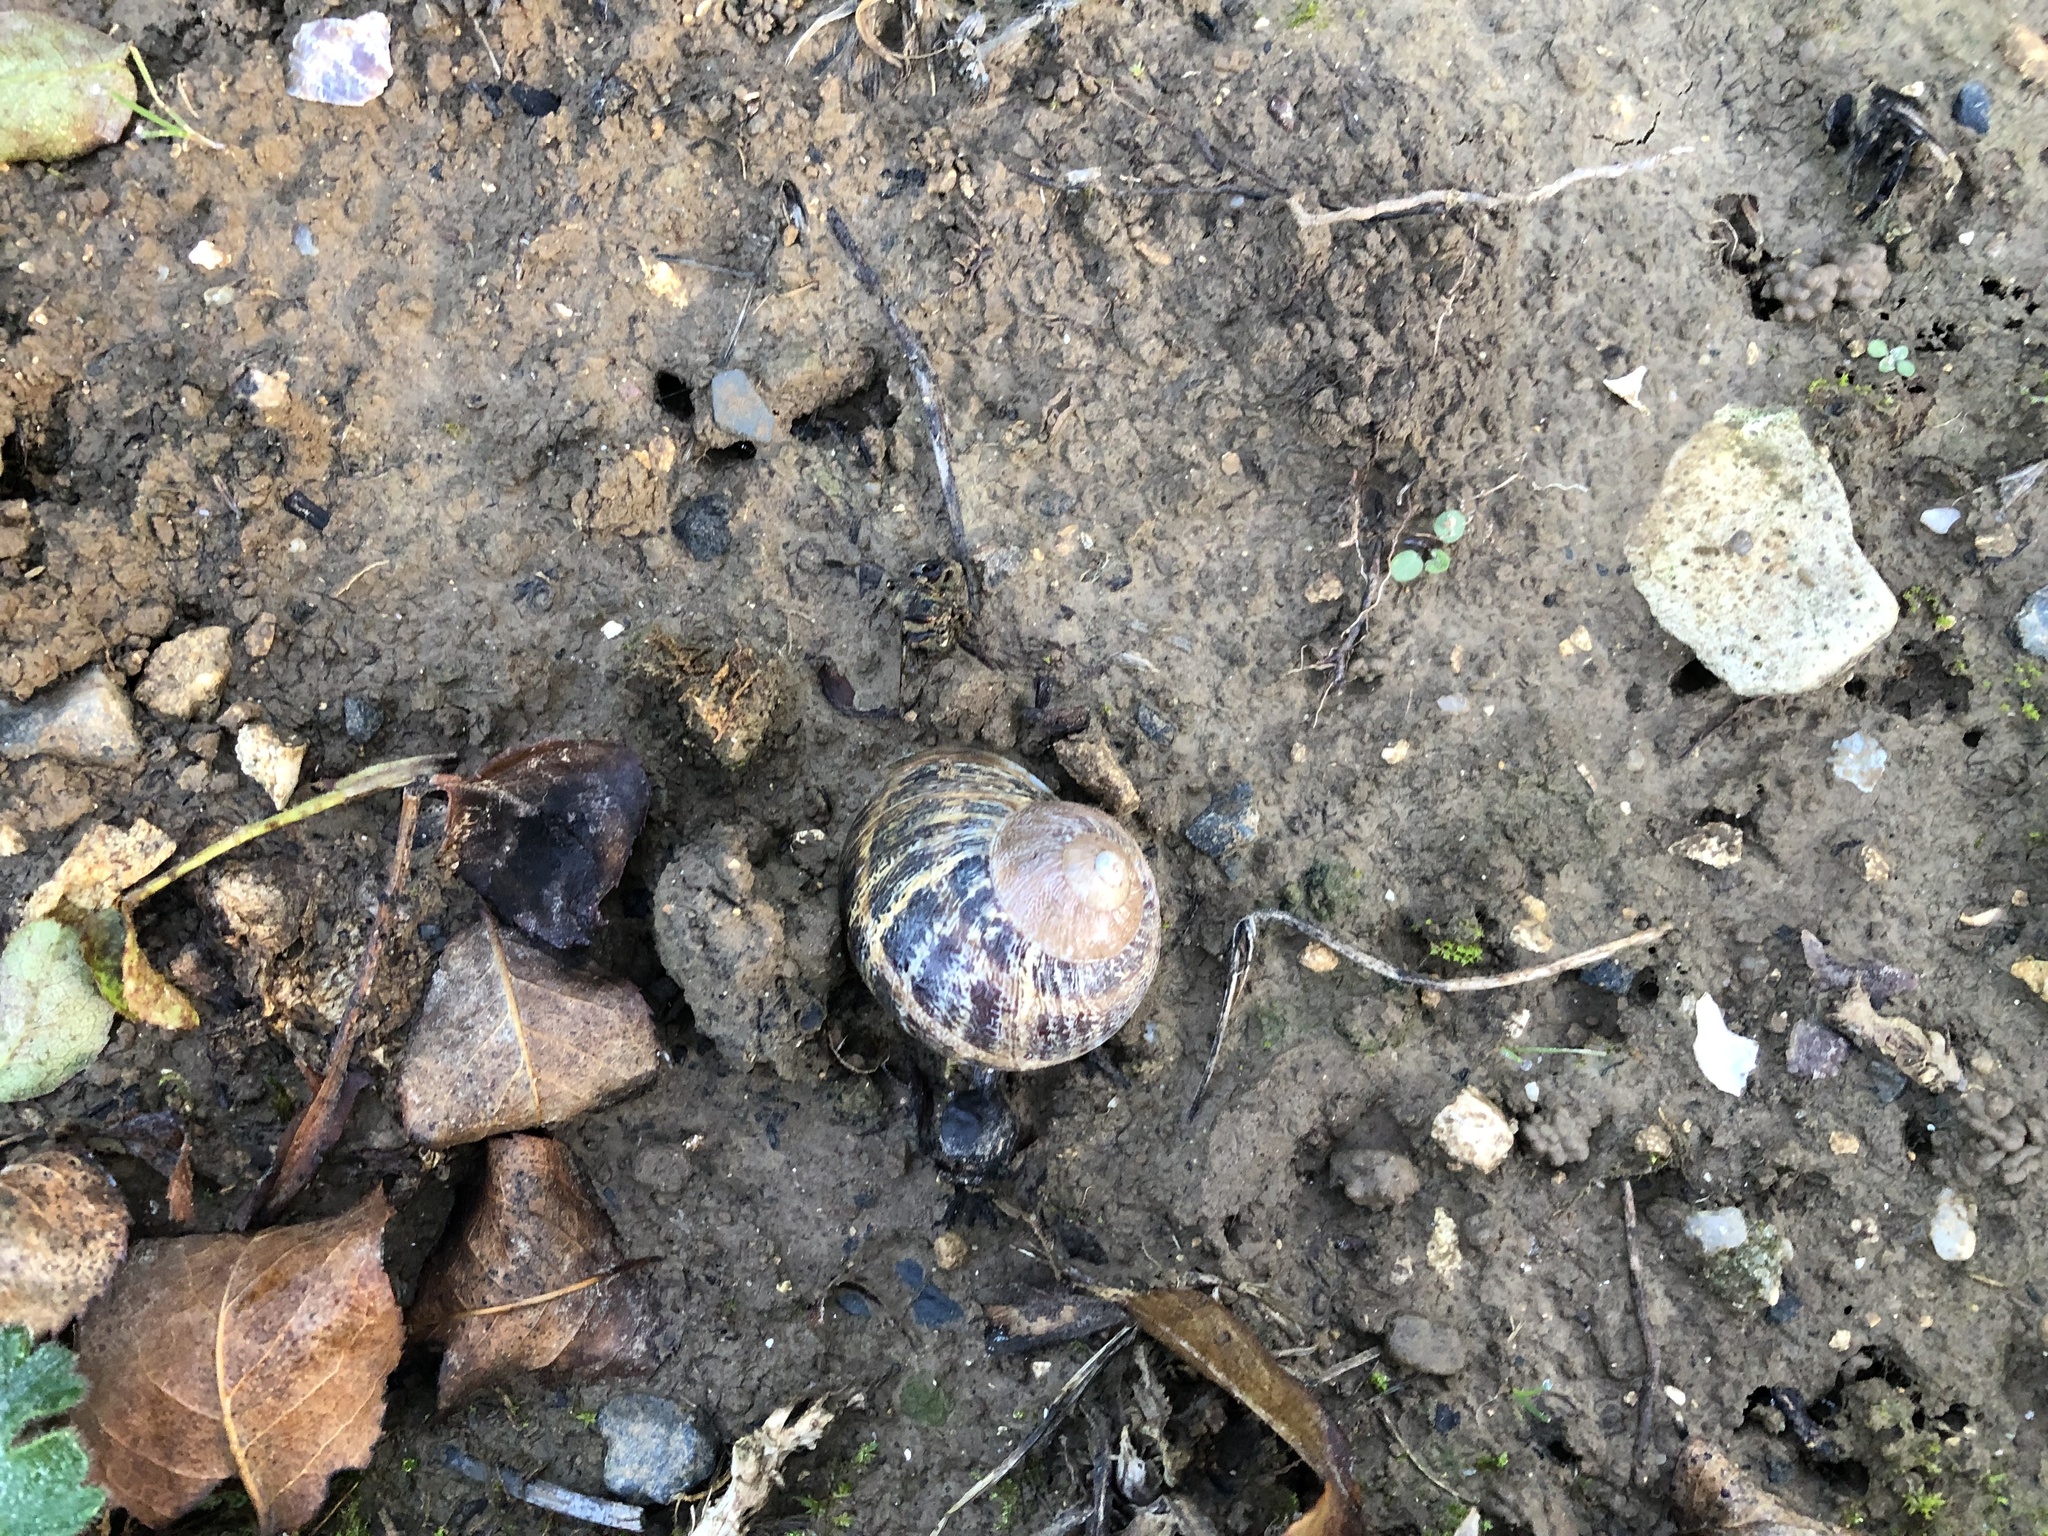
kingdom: Animalia
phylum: Mollusca
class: Gastropoda
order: Stylommatophora
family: Helicidae
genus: Cornu
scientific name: Cornu aspersum
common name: Brown garden snail
